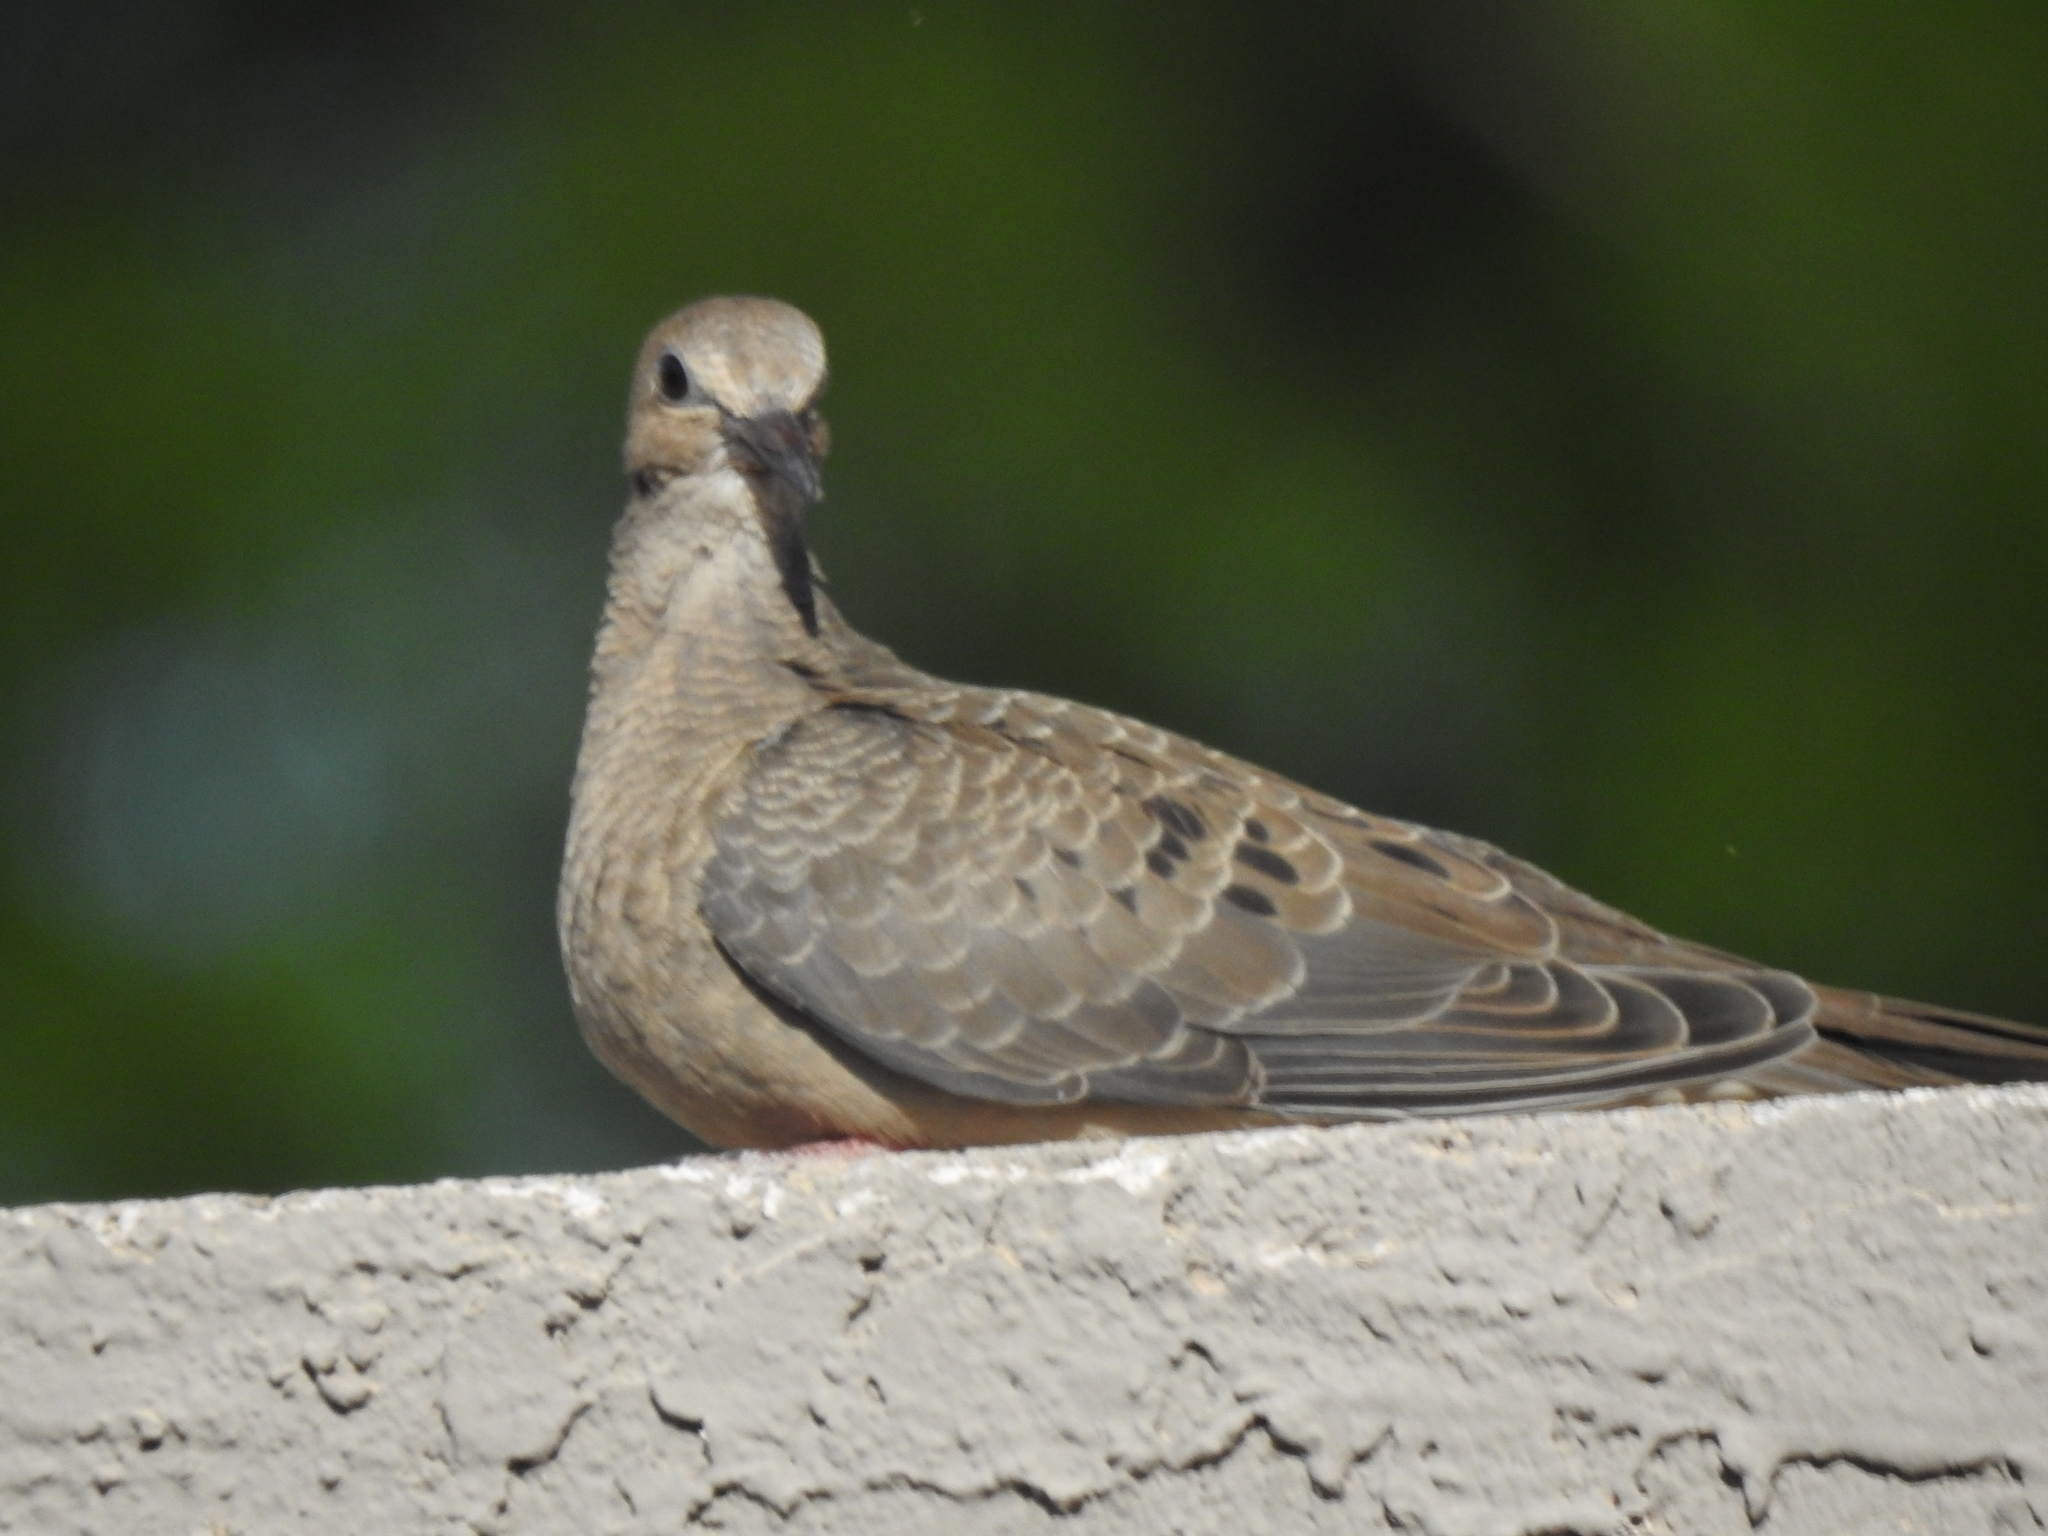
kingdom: Animalia
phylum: Chordata
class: Aves
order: Columbiformes
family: Columbidae
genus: Zenaida
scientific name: Zenaida macroura
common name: Mourning dove
